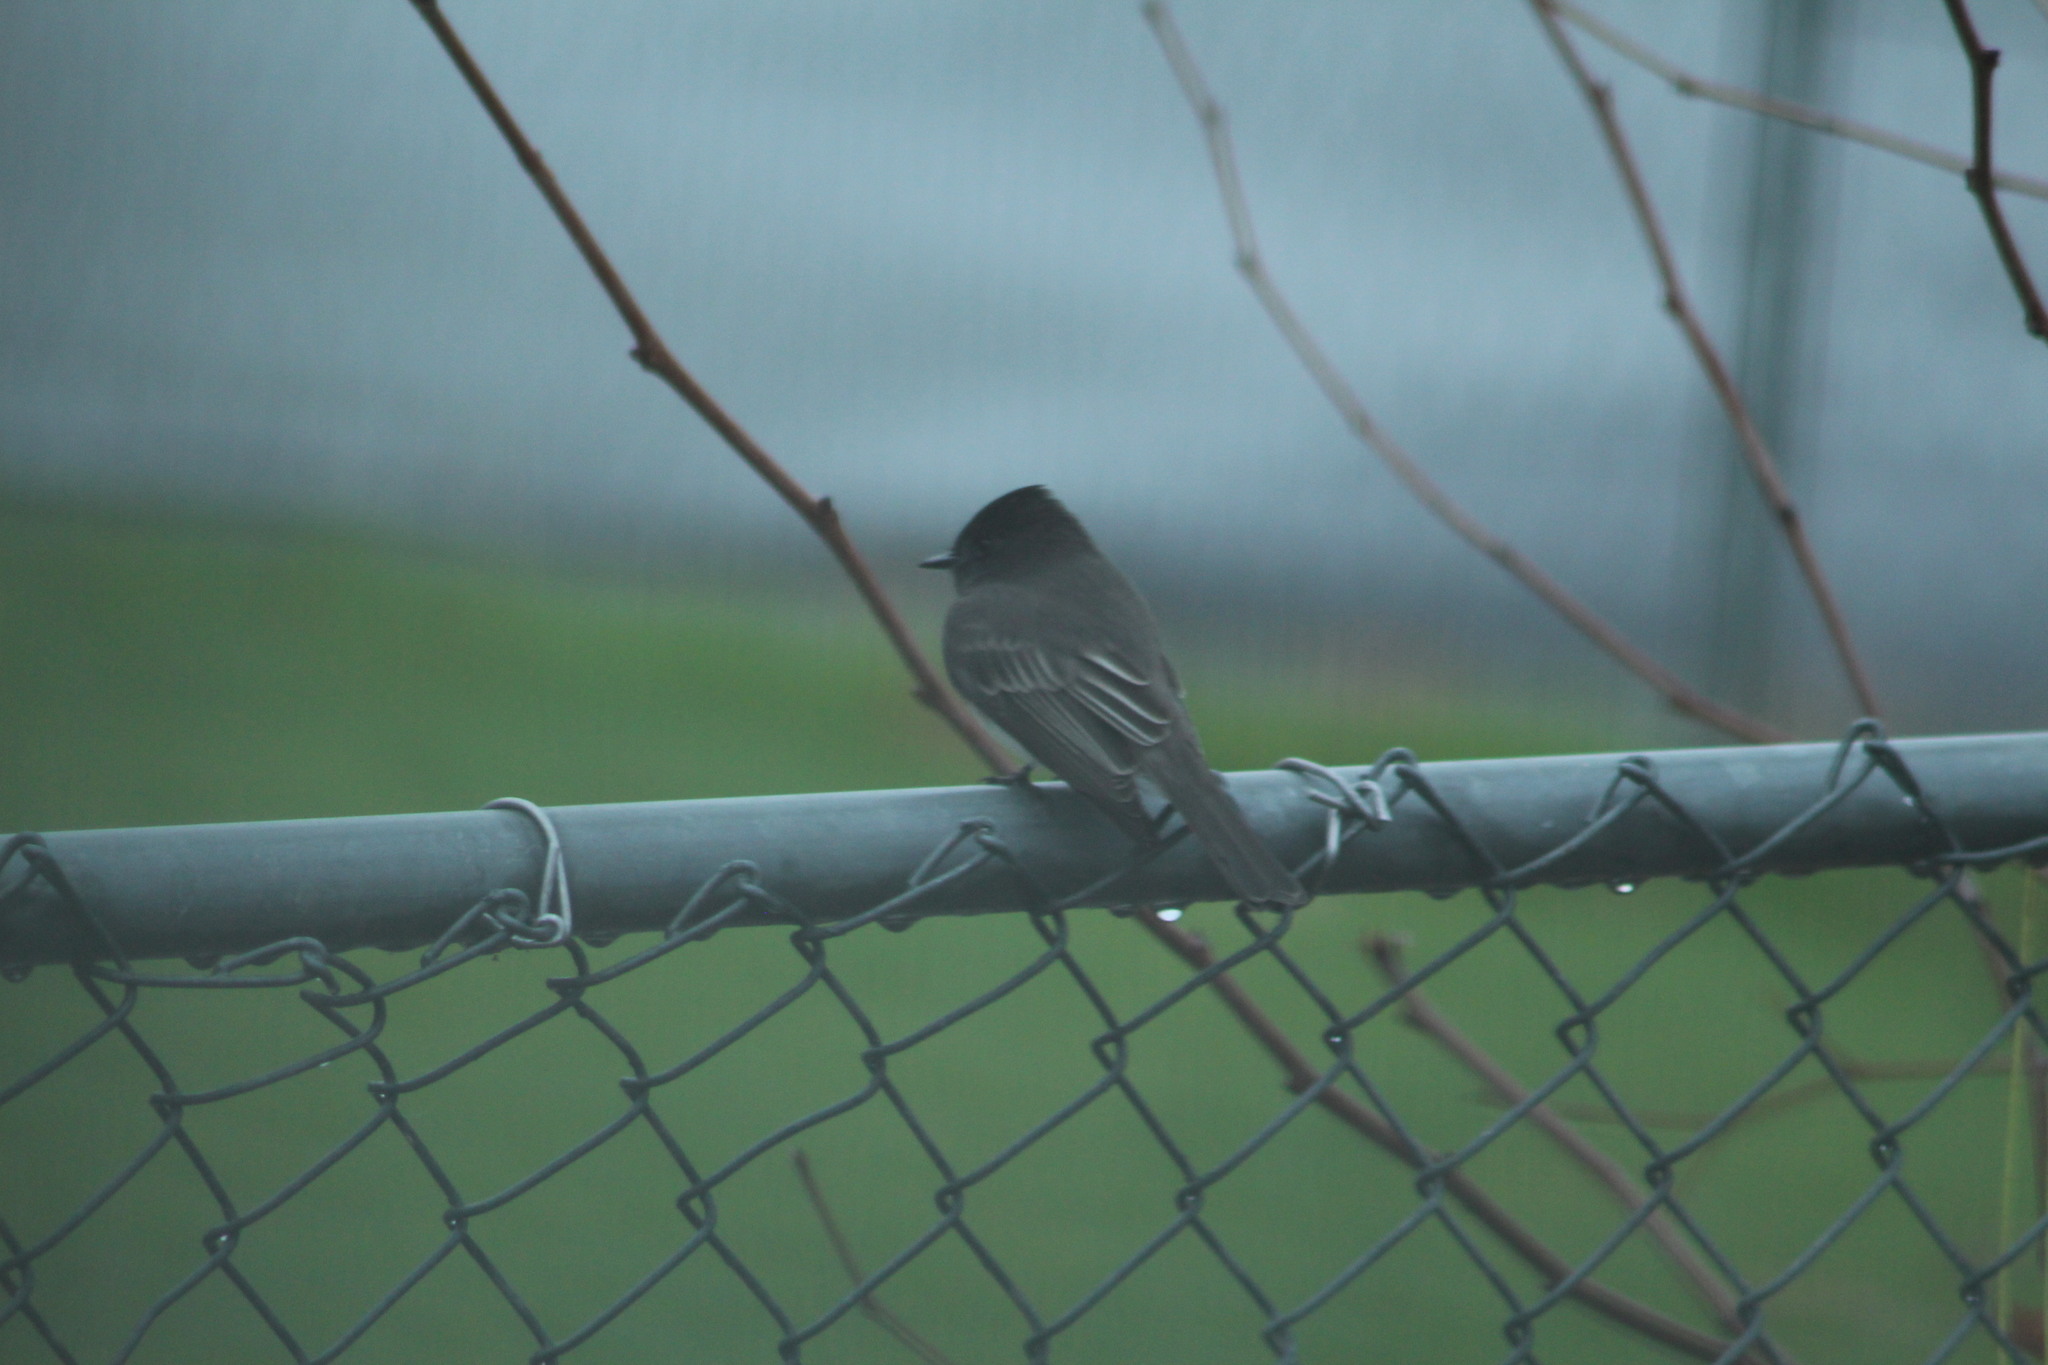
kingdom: Animalia
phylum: Chordata
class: Aves
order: Passeriformes
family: Tyrannidae
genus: Sayornis
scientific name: Sayornis nigricans
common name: Black phoebe
